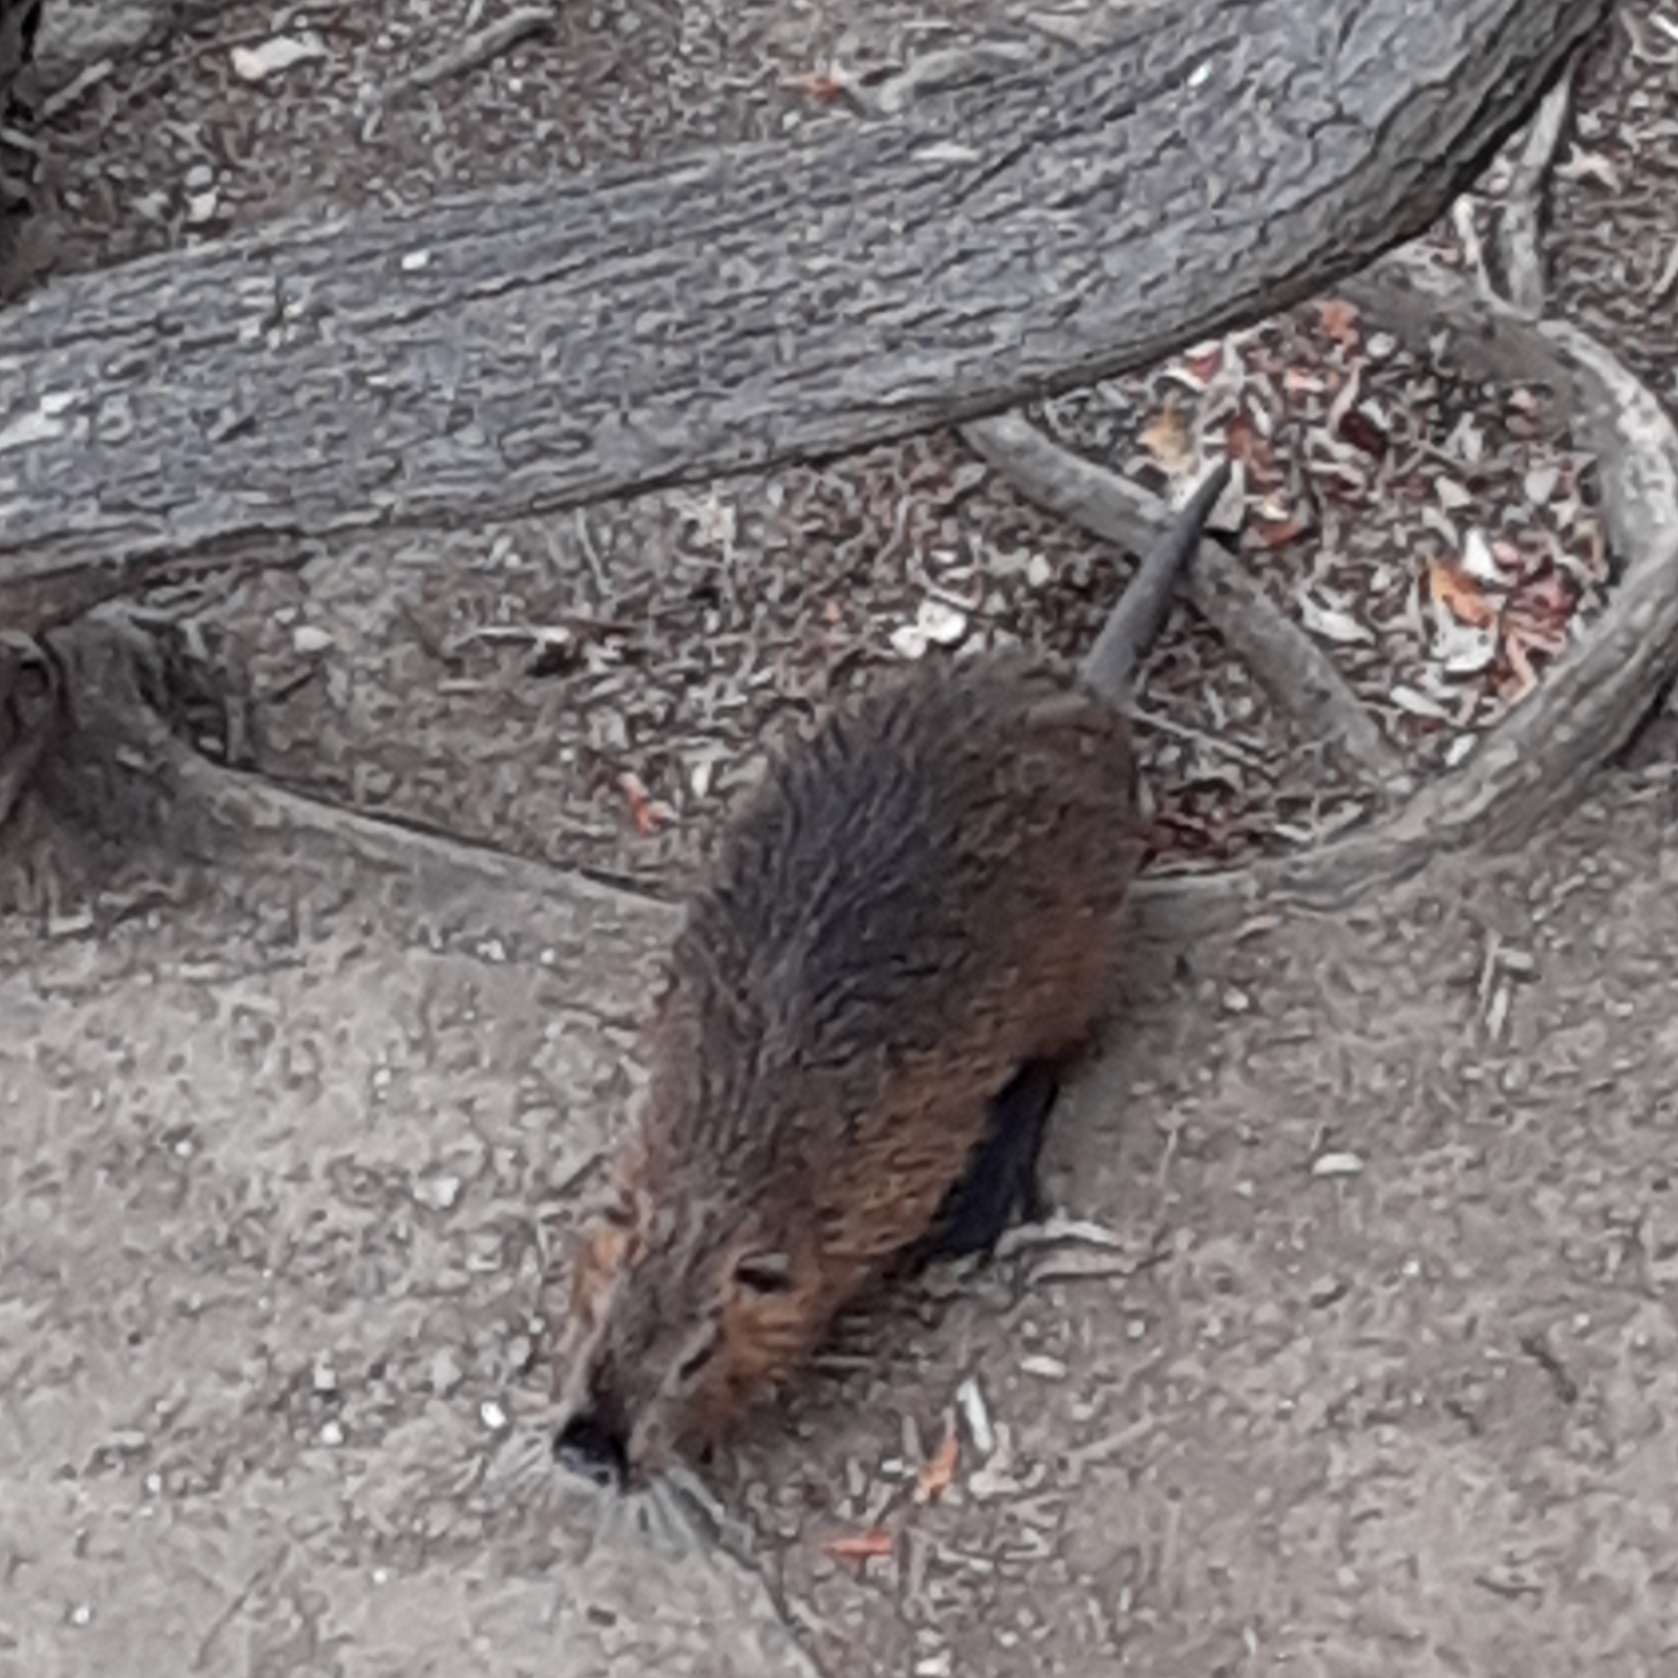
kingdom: Animalia
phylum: Chordata
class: Mammalia
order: Rodentia
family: Myocastoridae
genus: Myocastor
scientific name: Myocastor coypus
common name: Coypu
